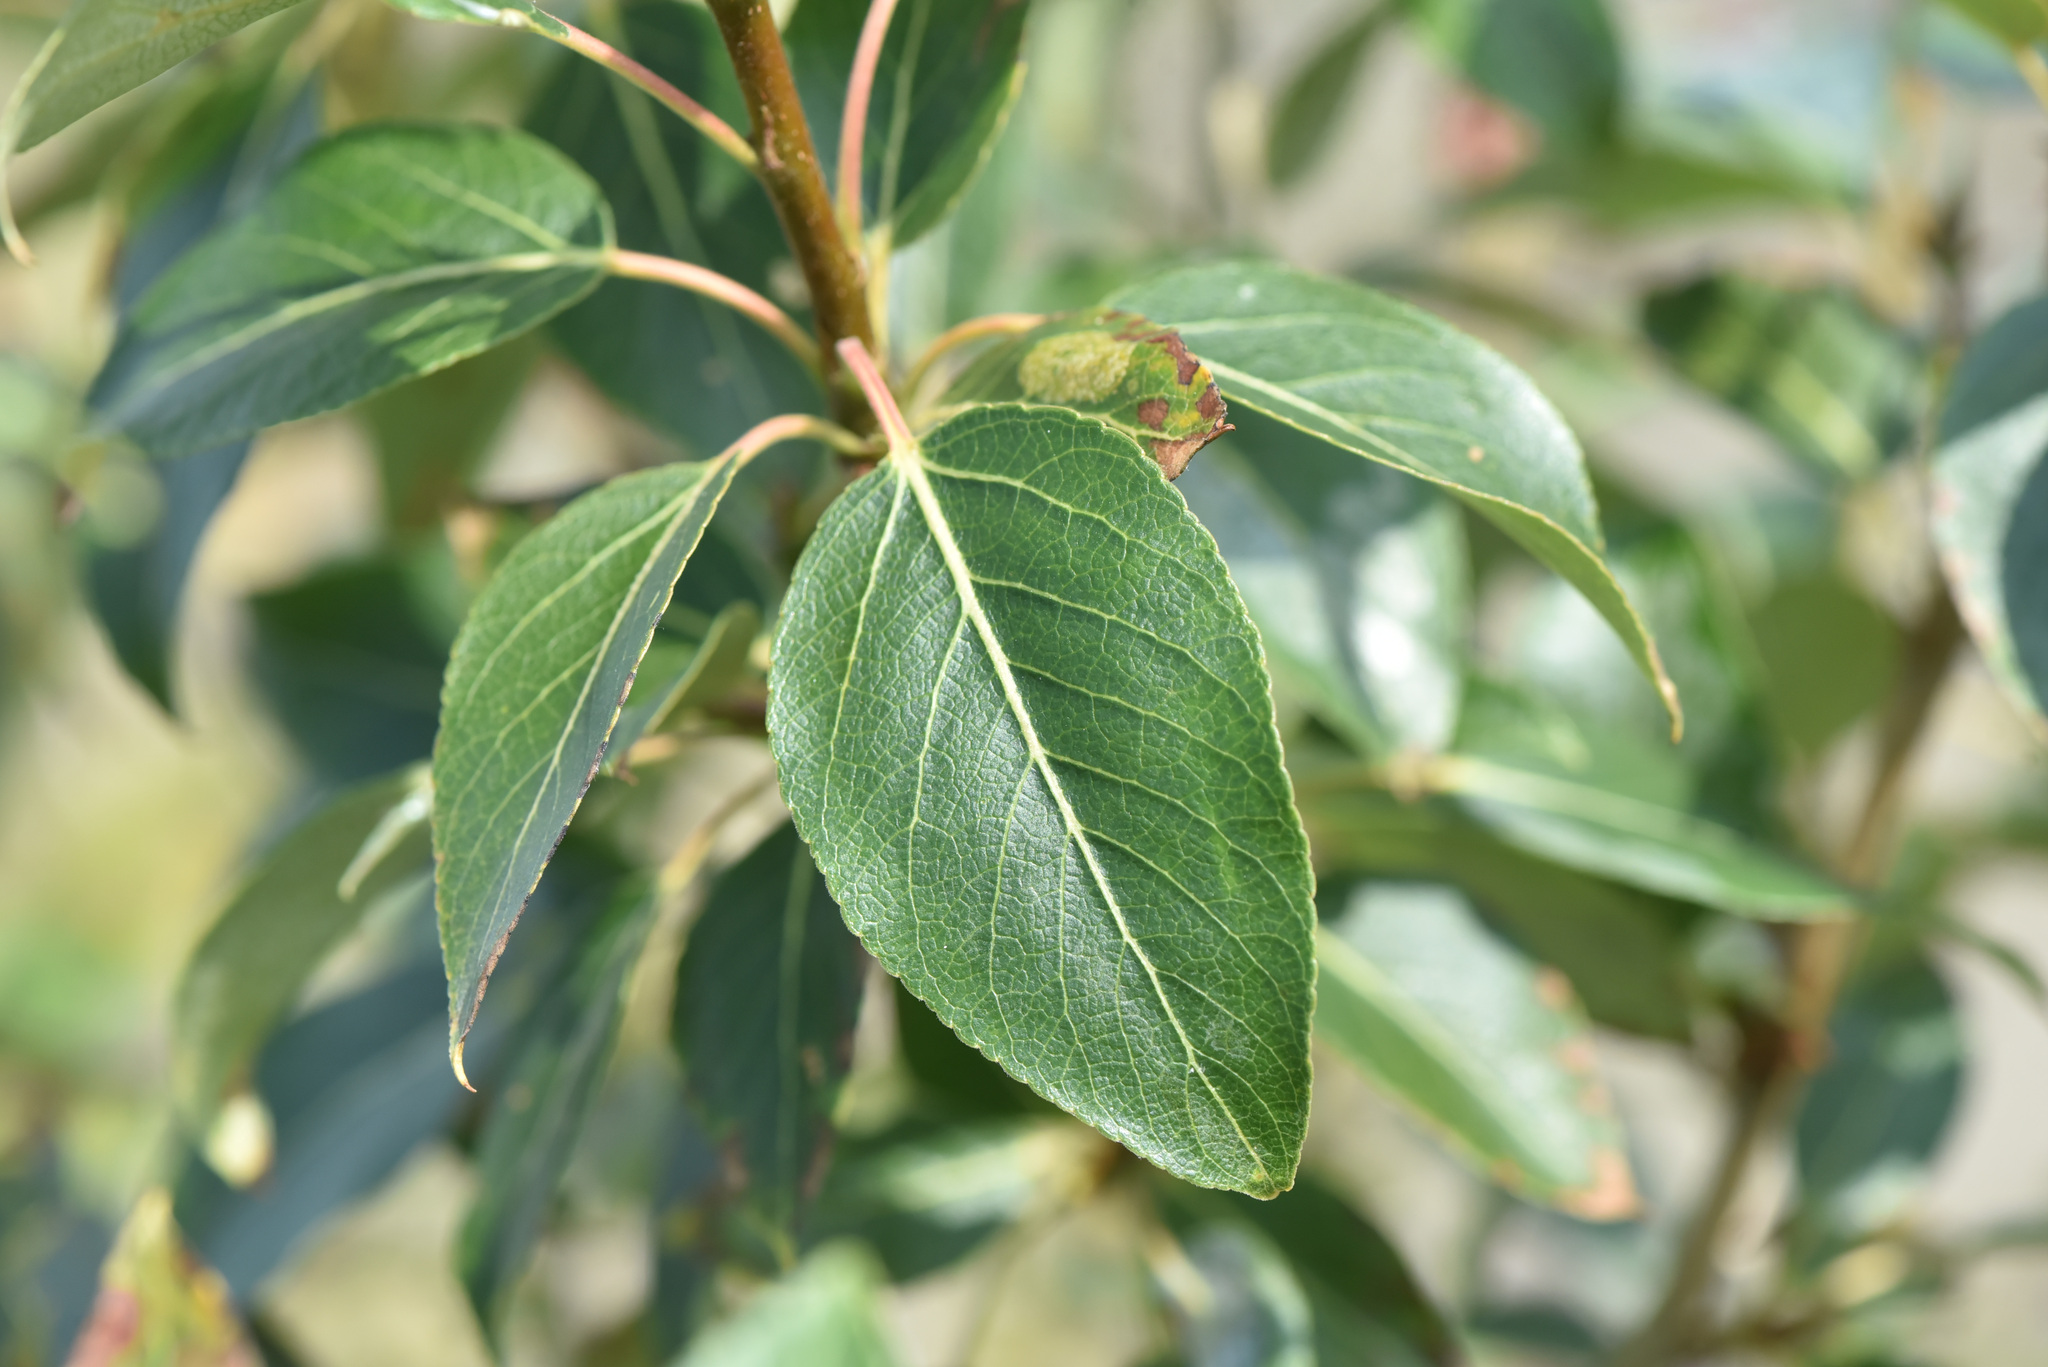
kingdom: Plantae
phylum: Tracheophyta
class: Magnoliopsida
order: Malpighiales
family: Salicaceae
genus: Populus
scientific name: Populus balsamifera
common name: Balsam poplar
